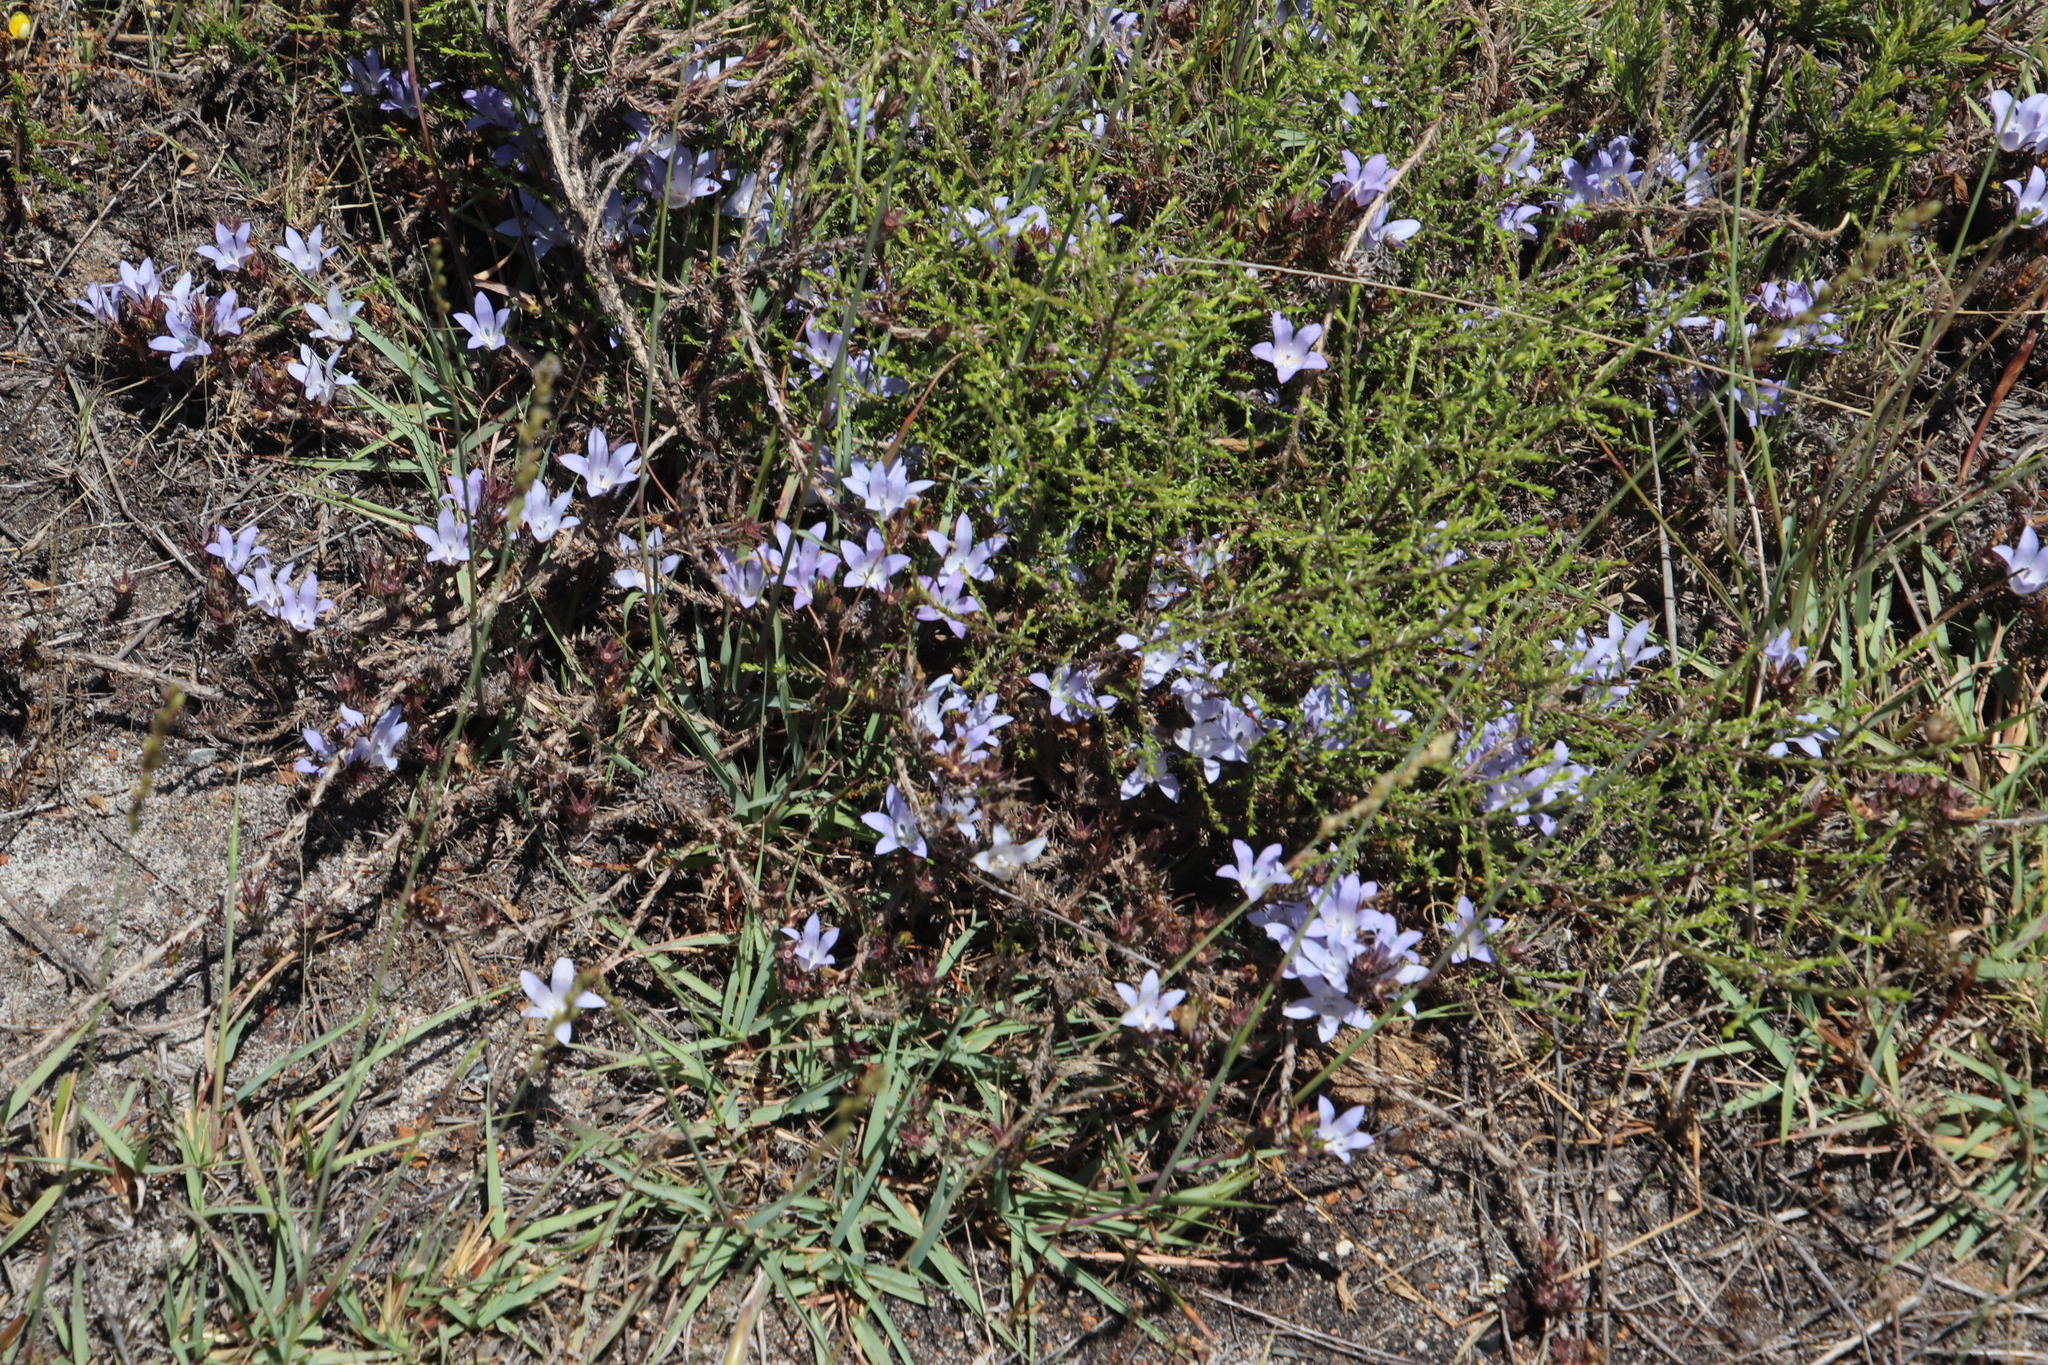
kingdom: Plantae
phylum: Tracheophyta
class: Magnoliopsida
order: Asterales
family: Campanulaceae
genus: Roella
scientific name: Roella prostrata
